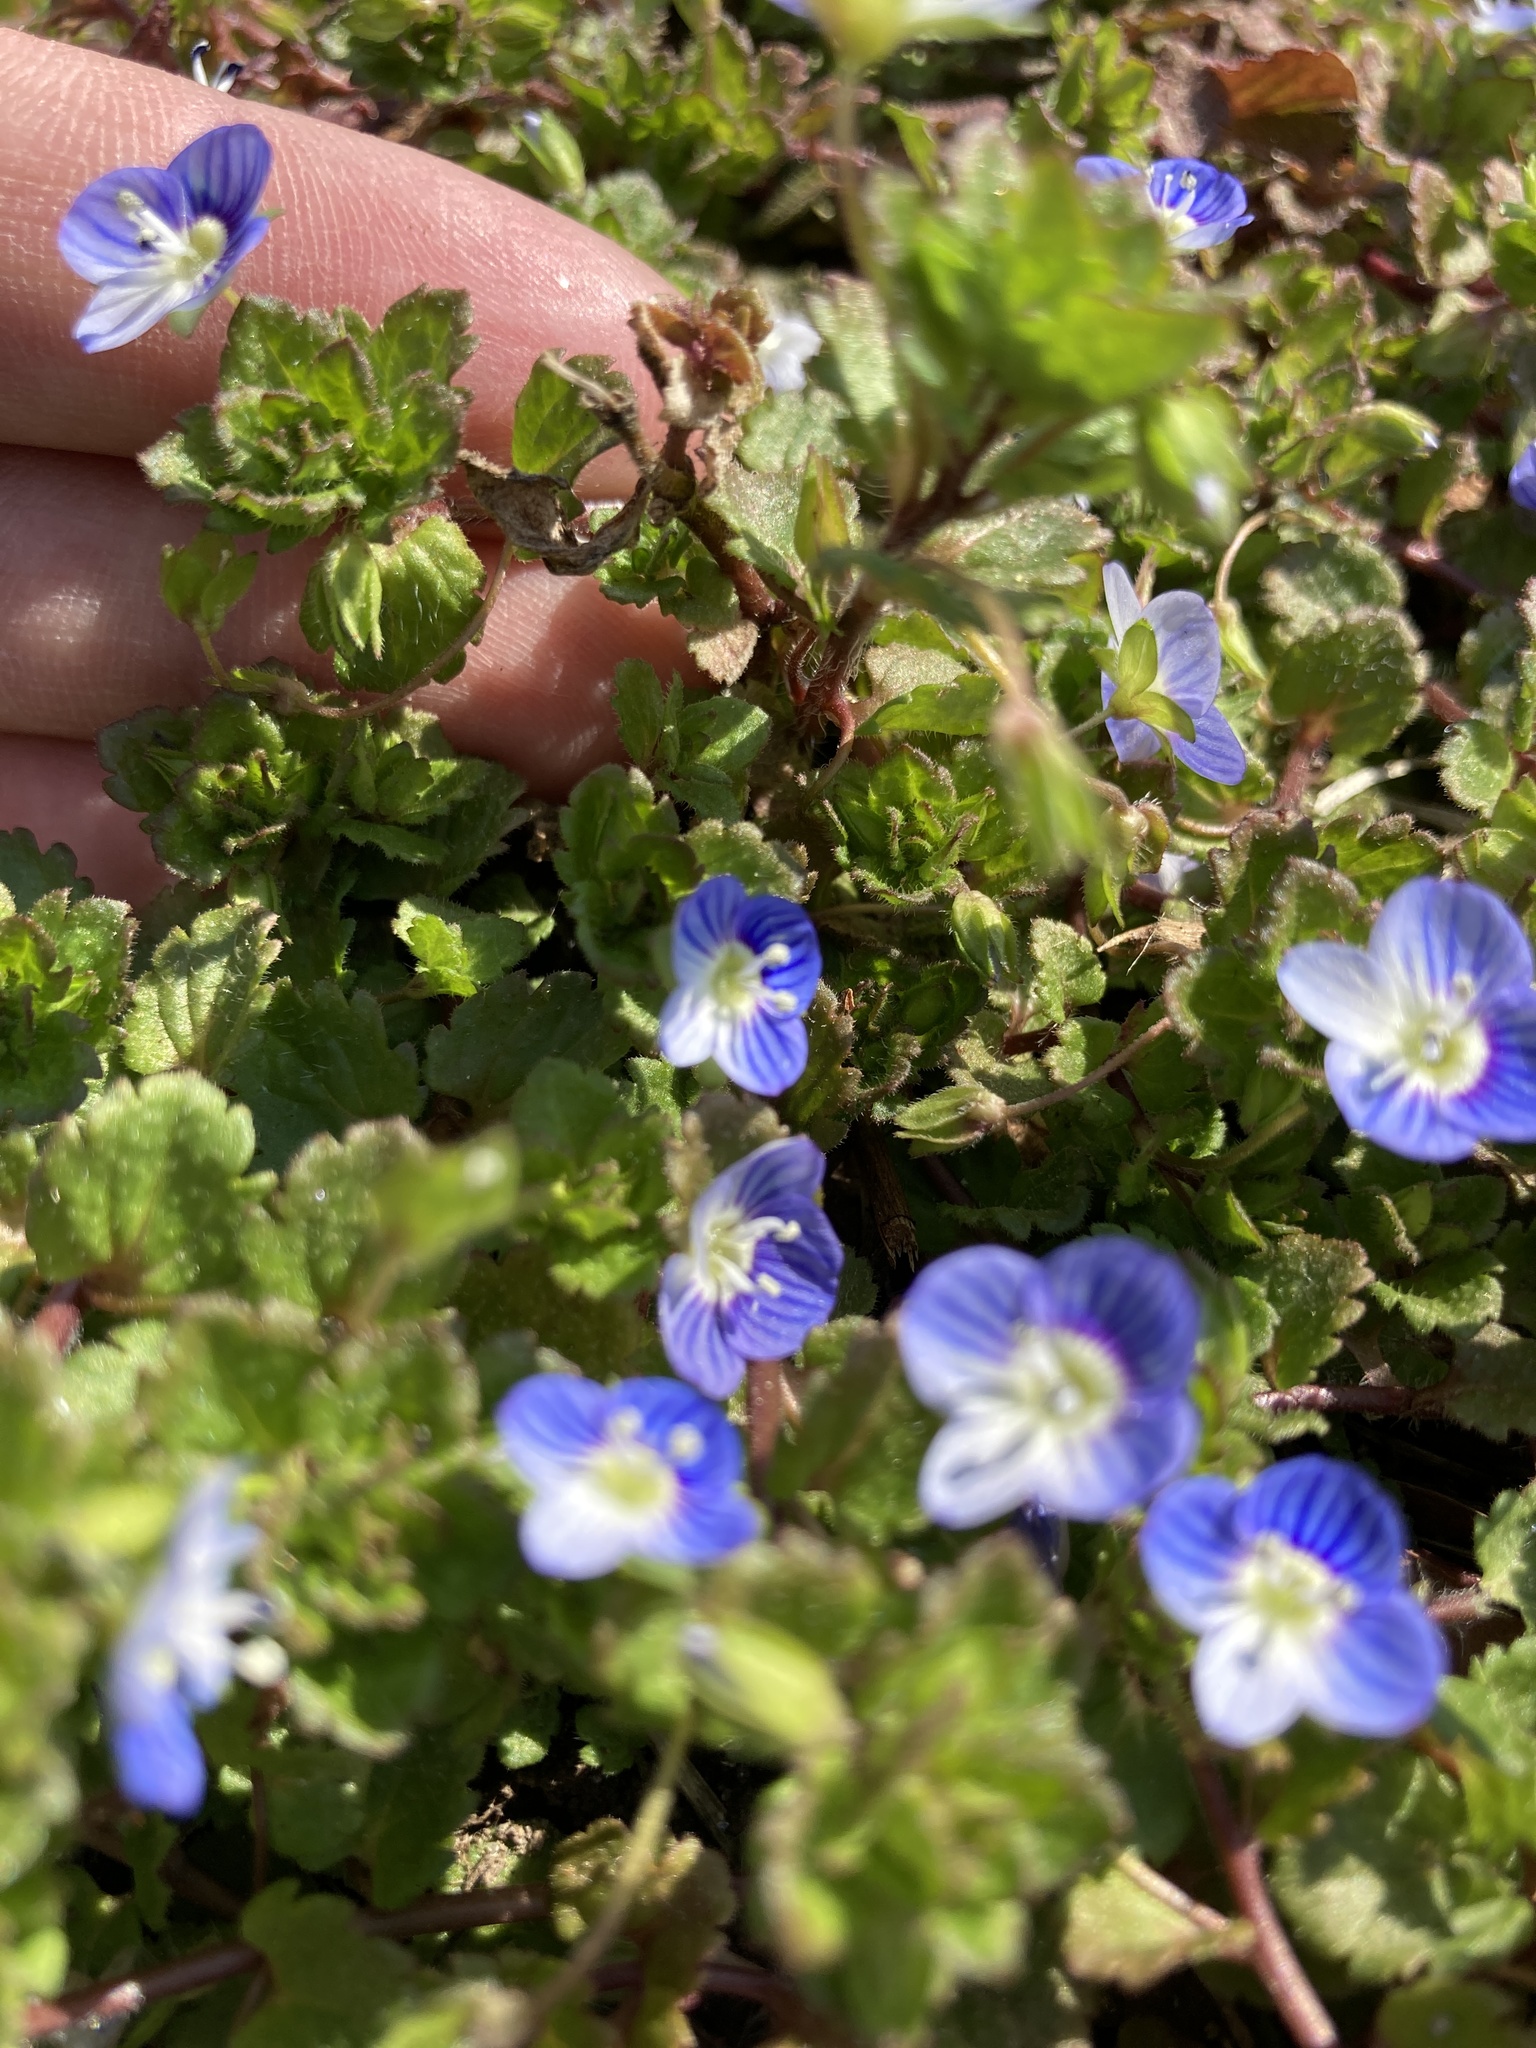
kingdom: Plantae
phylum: Tracheophyta
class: Magnoliopsida
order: Lamiales
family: Plantaginaceae
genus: Veronica
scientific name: Veronica persica
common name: Common field-speedwell
